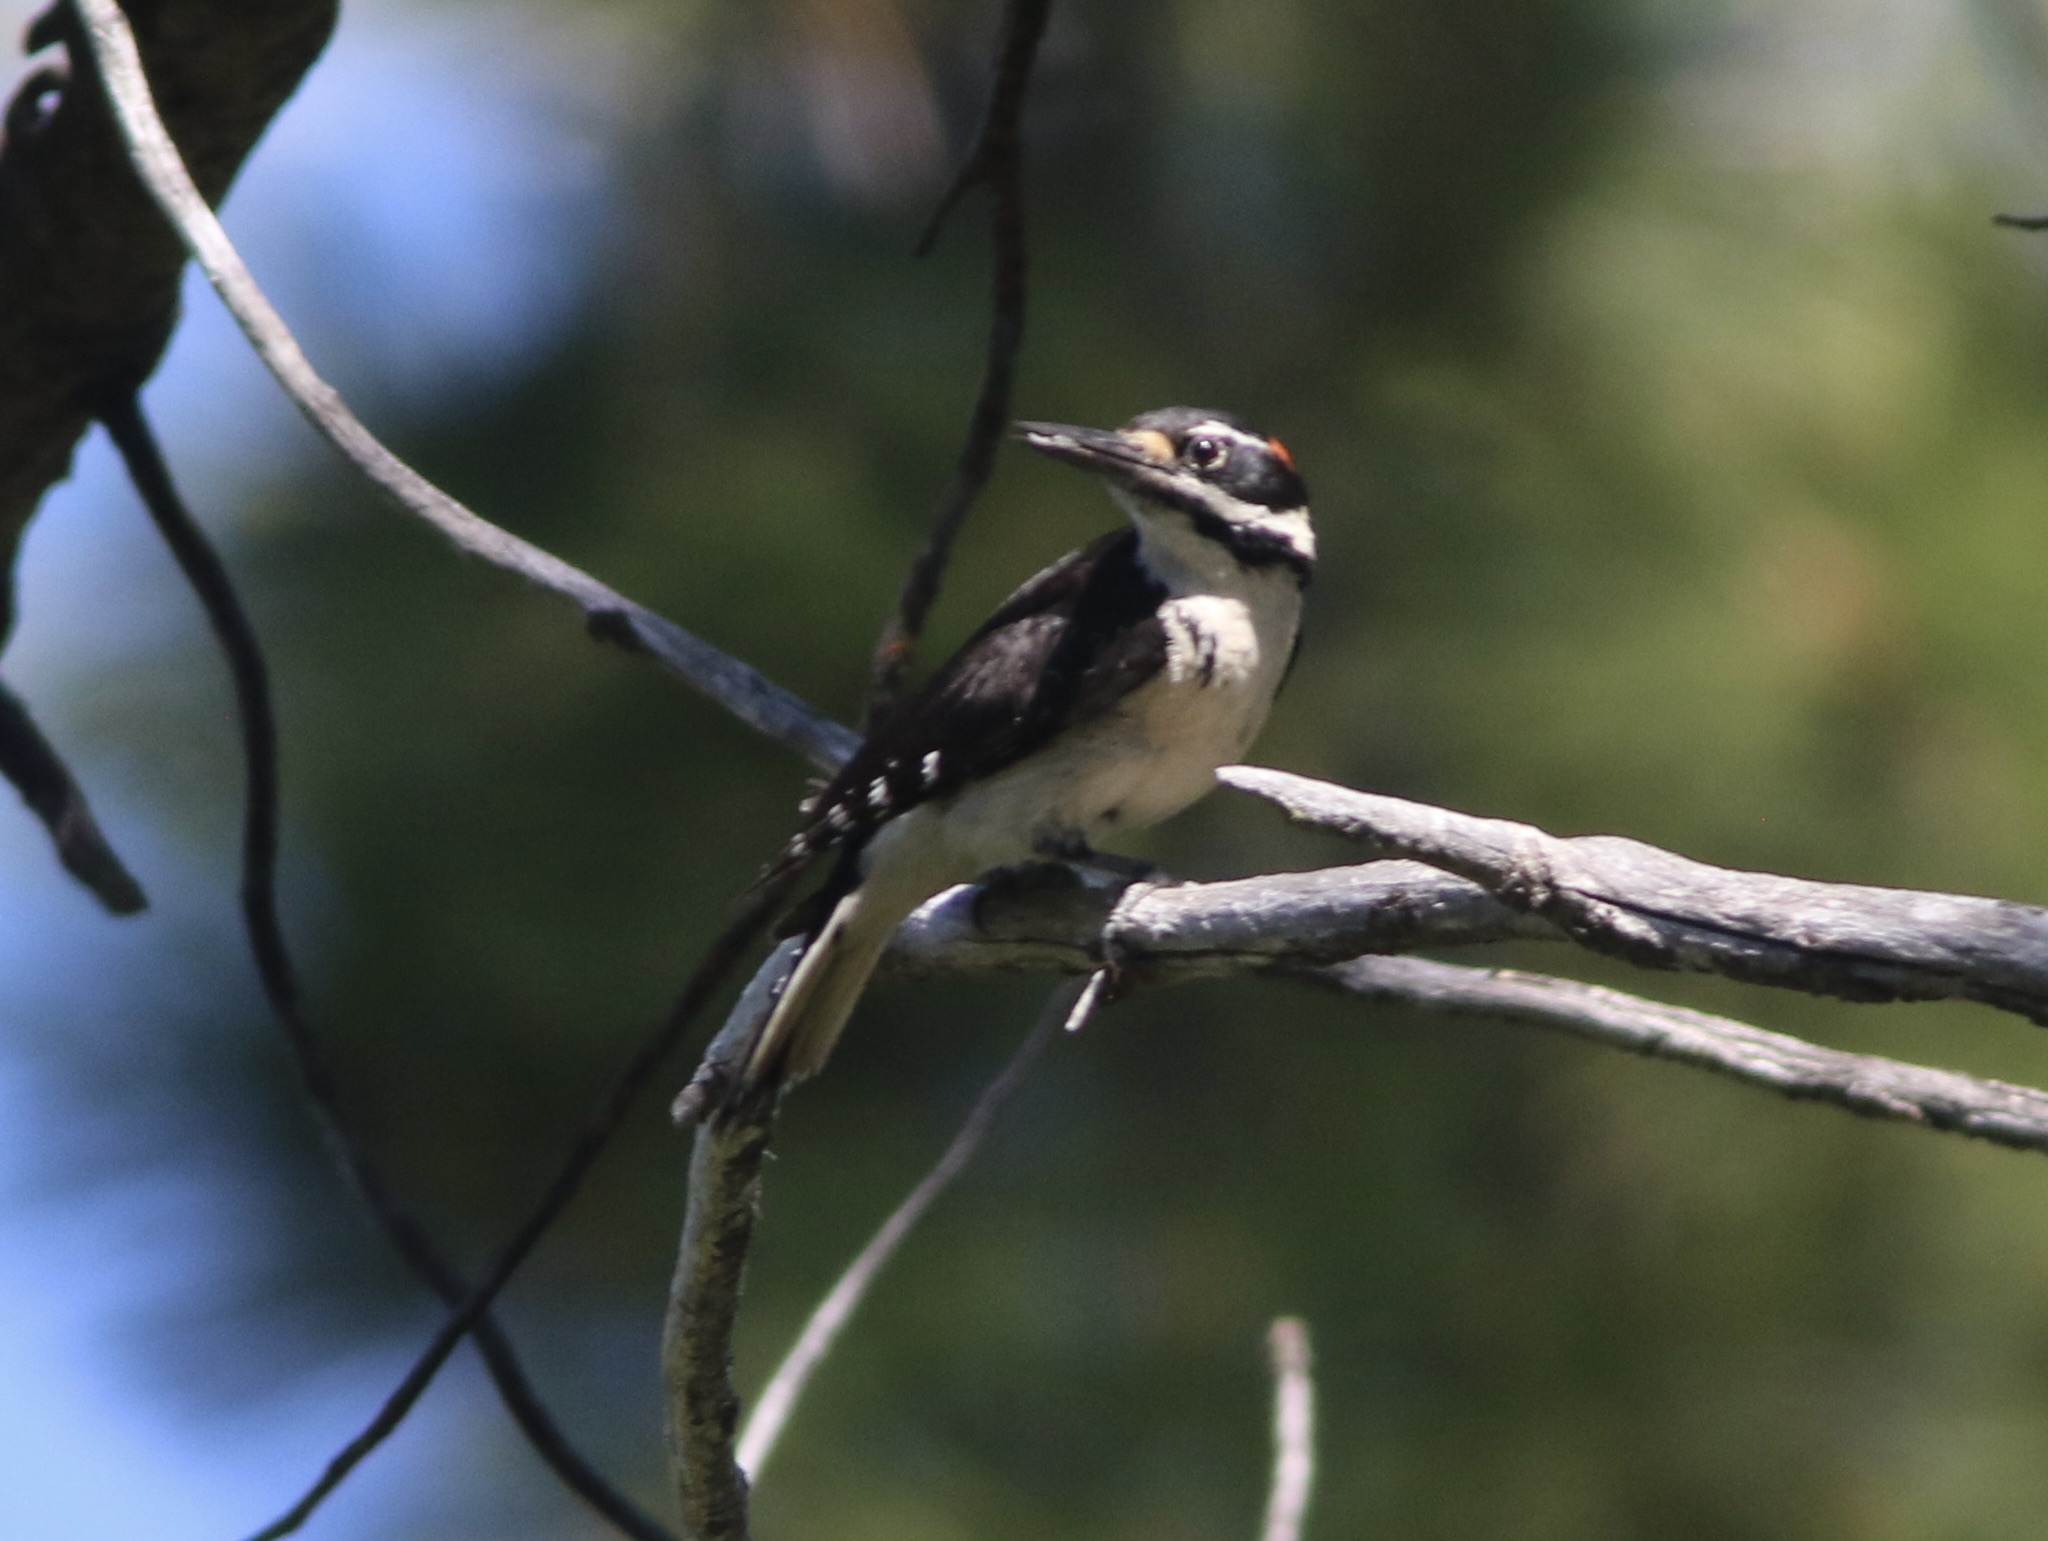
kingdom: Animalia
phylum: Chordata
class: Aves
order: Piciformes
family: Picidae
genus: Leuconotopicus
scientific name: Leuconotopicus villosus
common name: Hairy woodpecker
